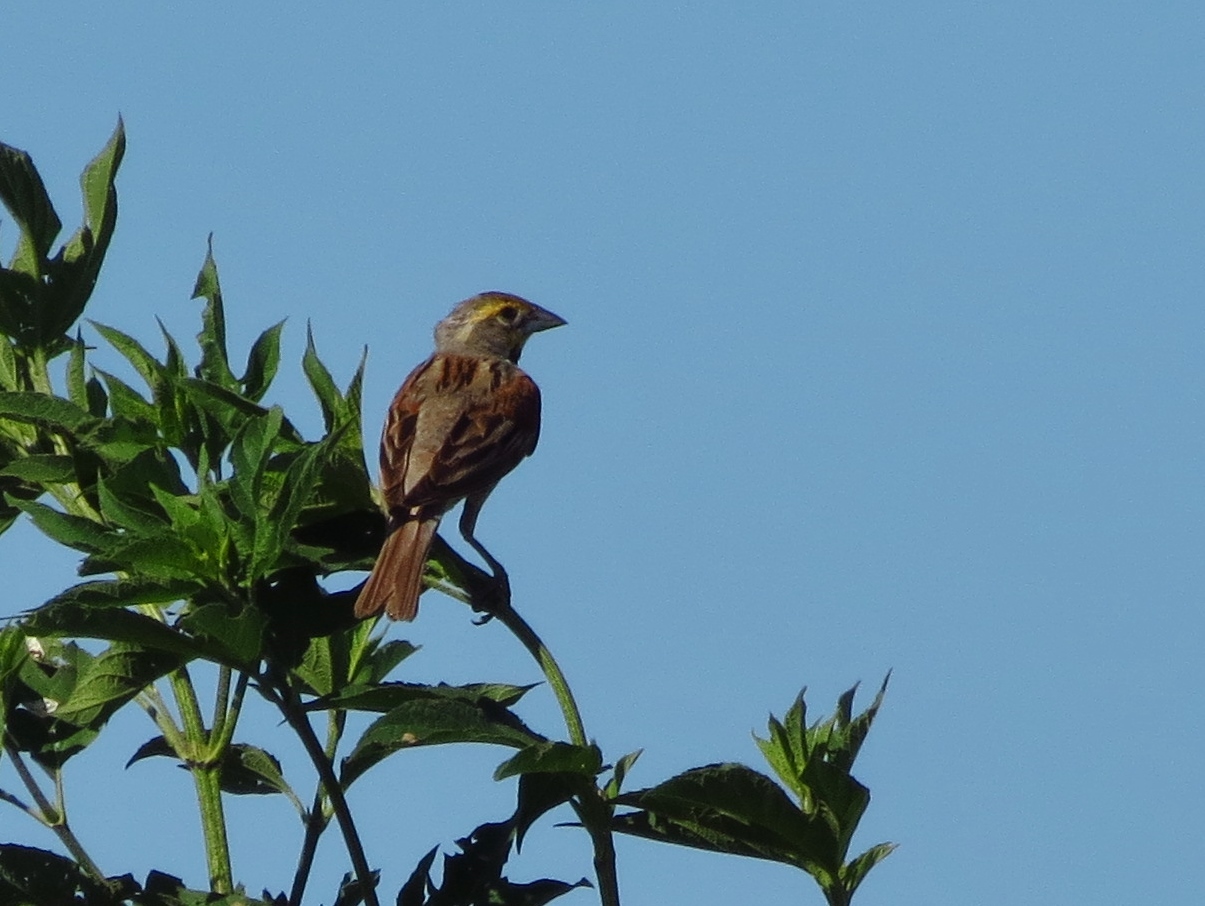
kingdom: Animalia
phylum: Chordata
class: Aves
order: Passeriformes
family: Cardinalidae
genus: Spiza
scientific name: Spiza americana
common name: Dickcissel
